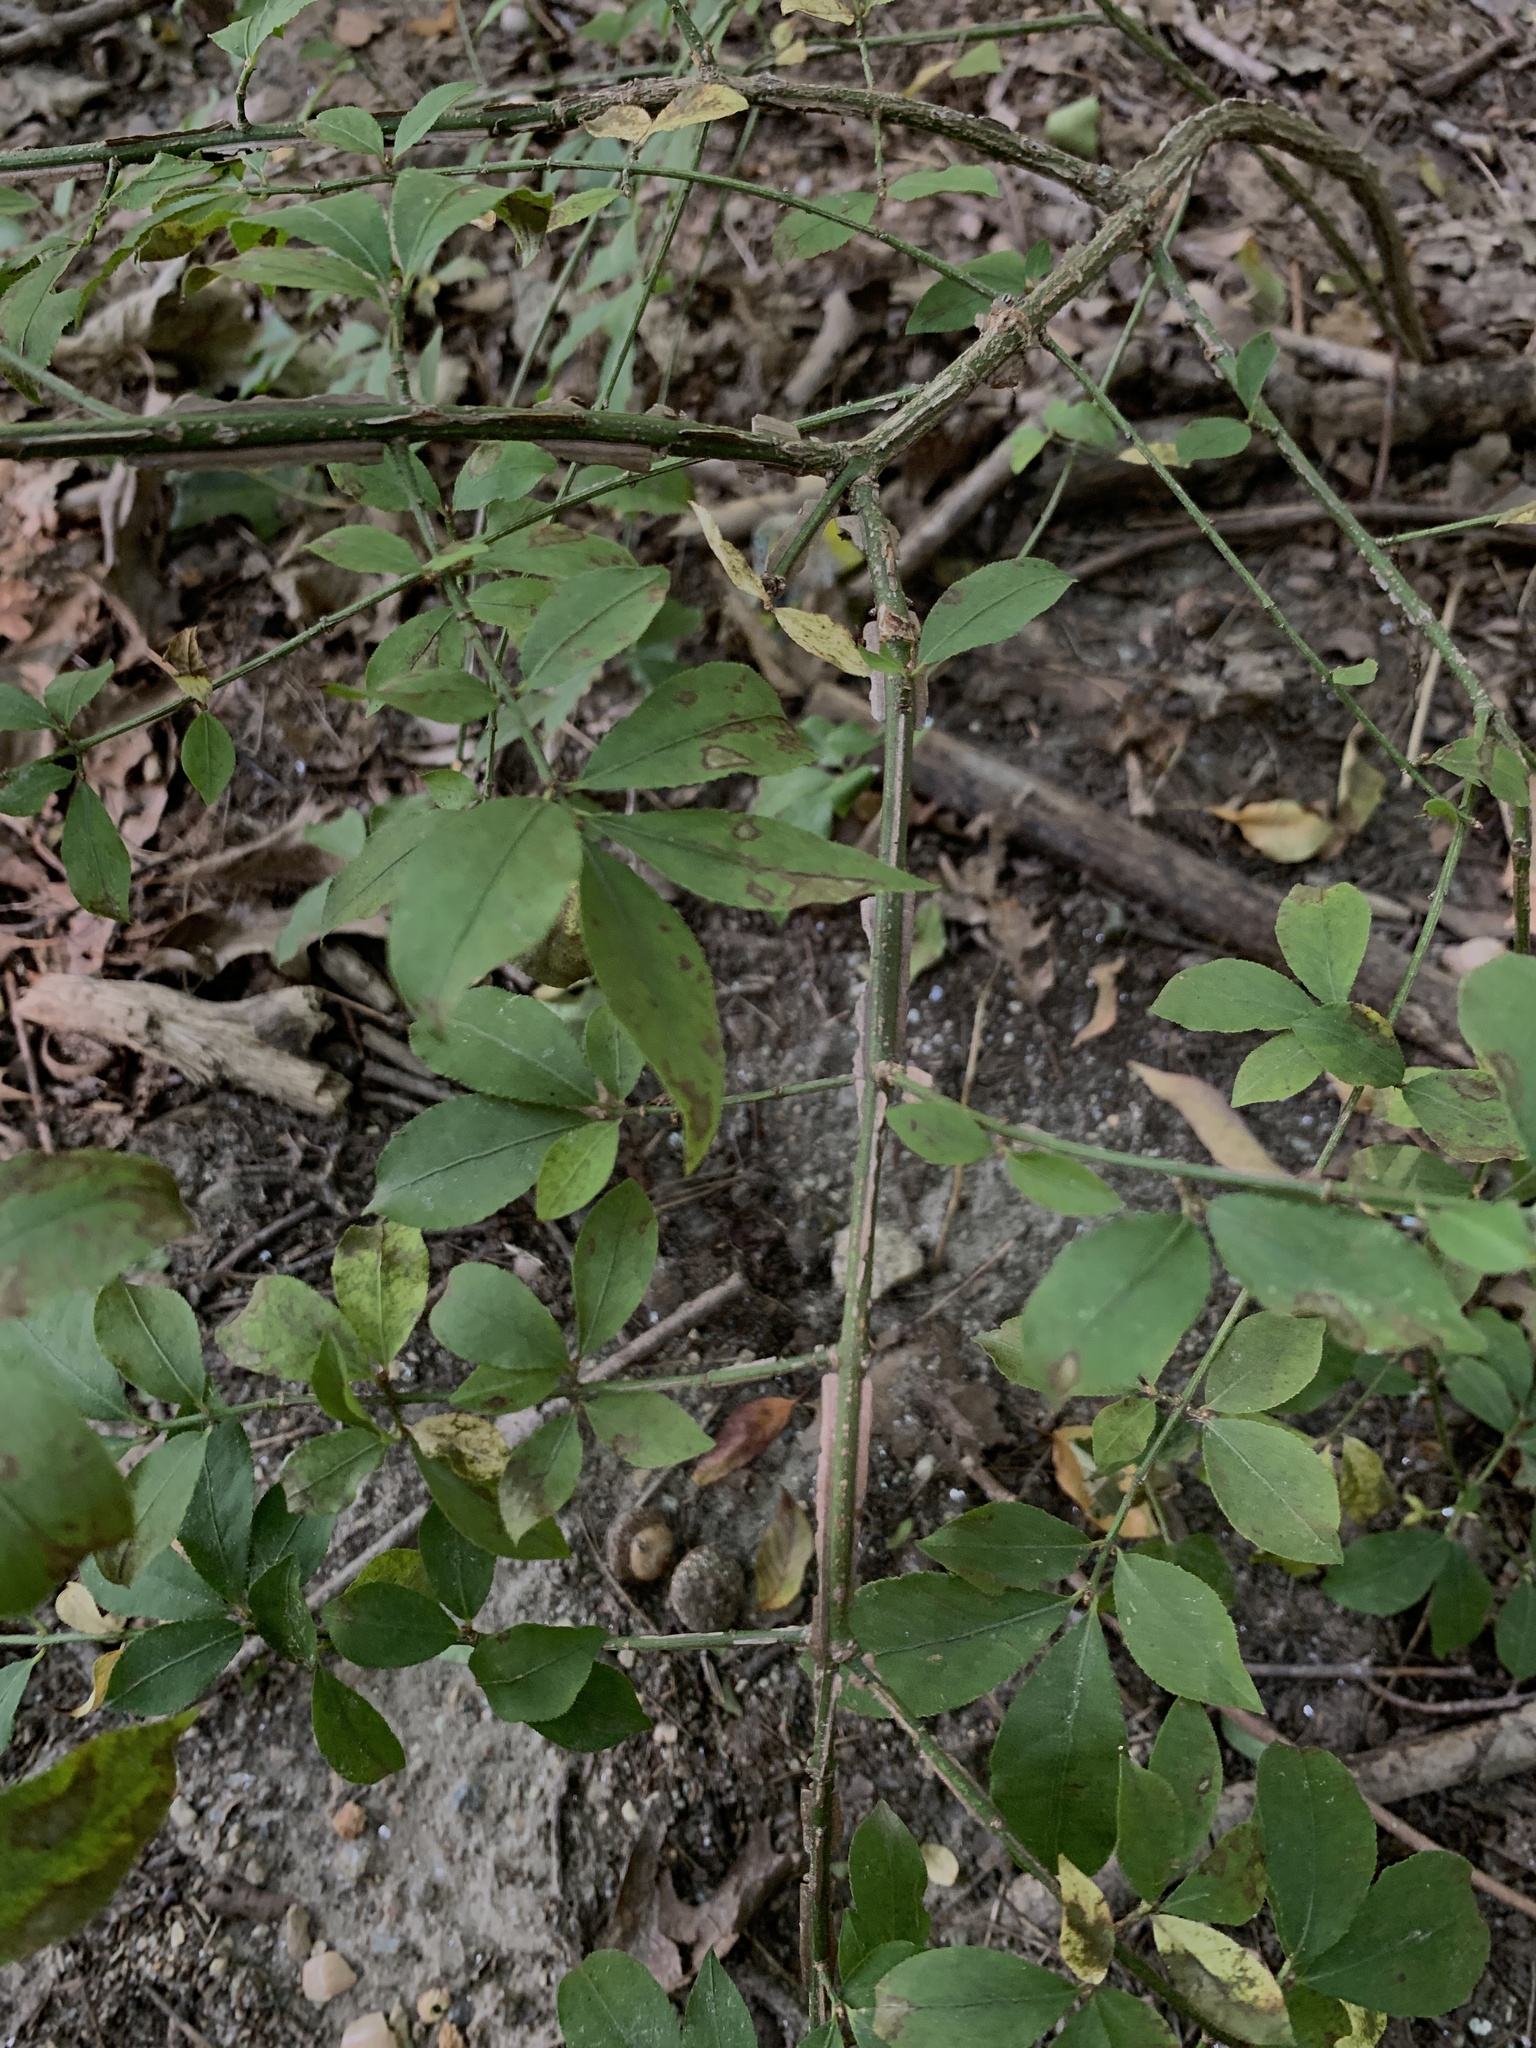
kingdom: Plantae
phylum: Tracheophyta
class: Magnoliopsida
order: Celastrales
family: Celastraceae
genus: Euonymus
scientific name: Euonymus alatus
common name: Winged euonymus
